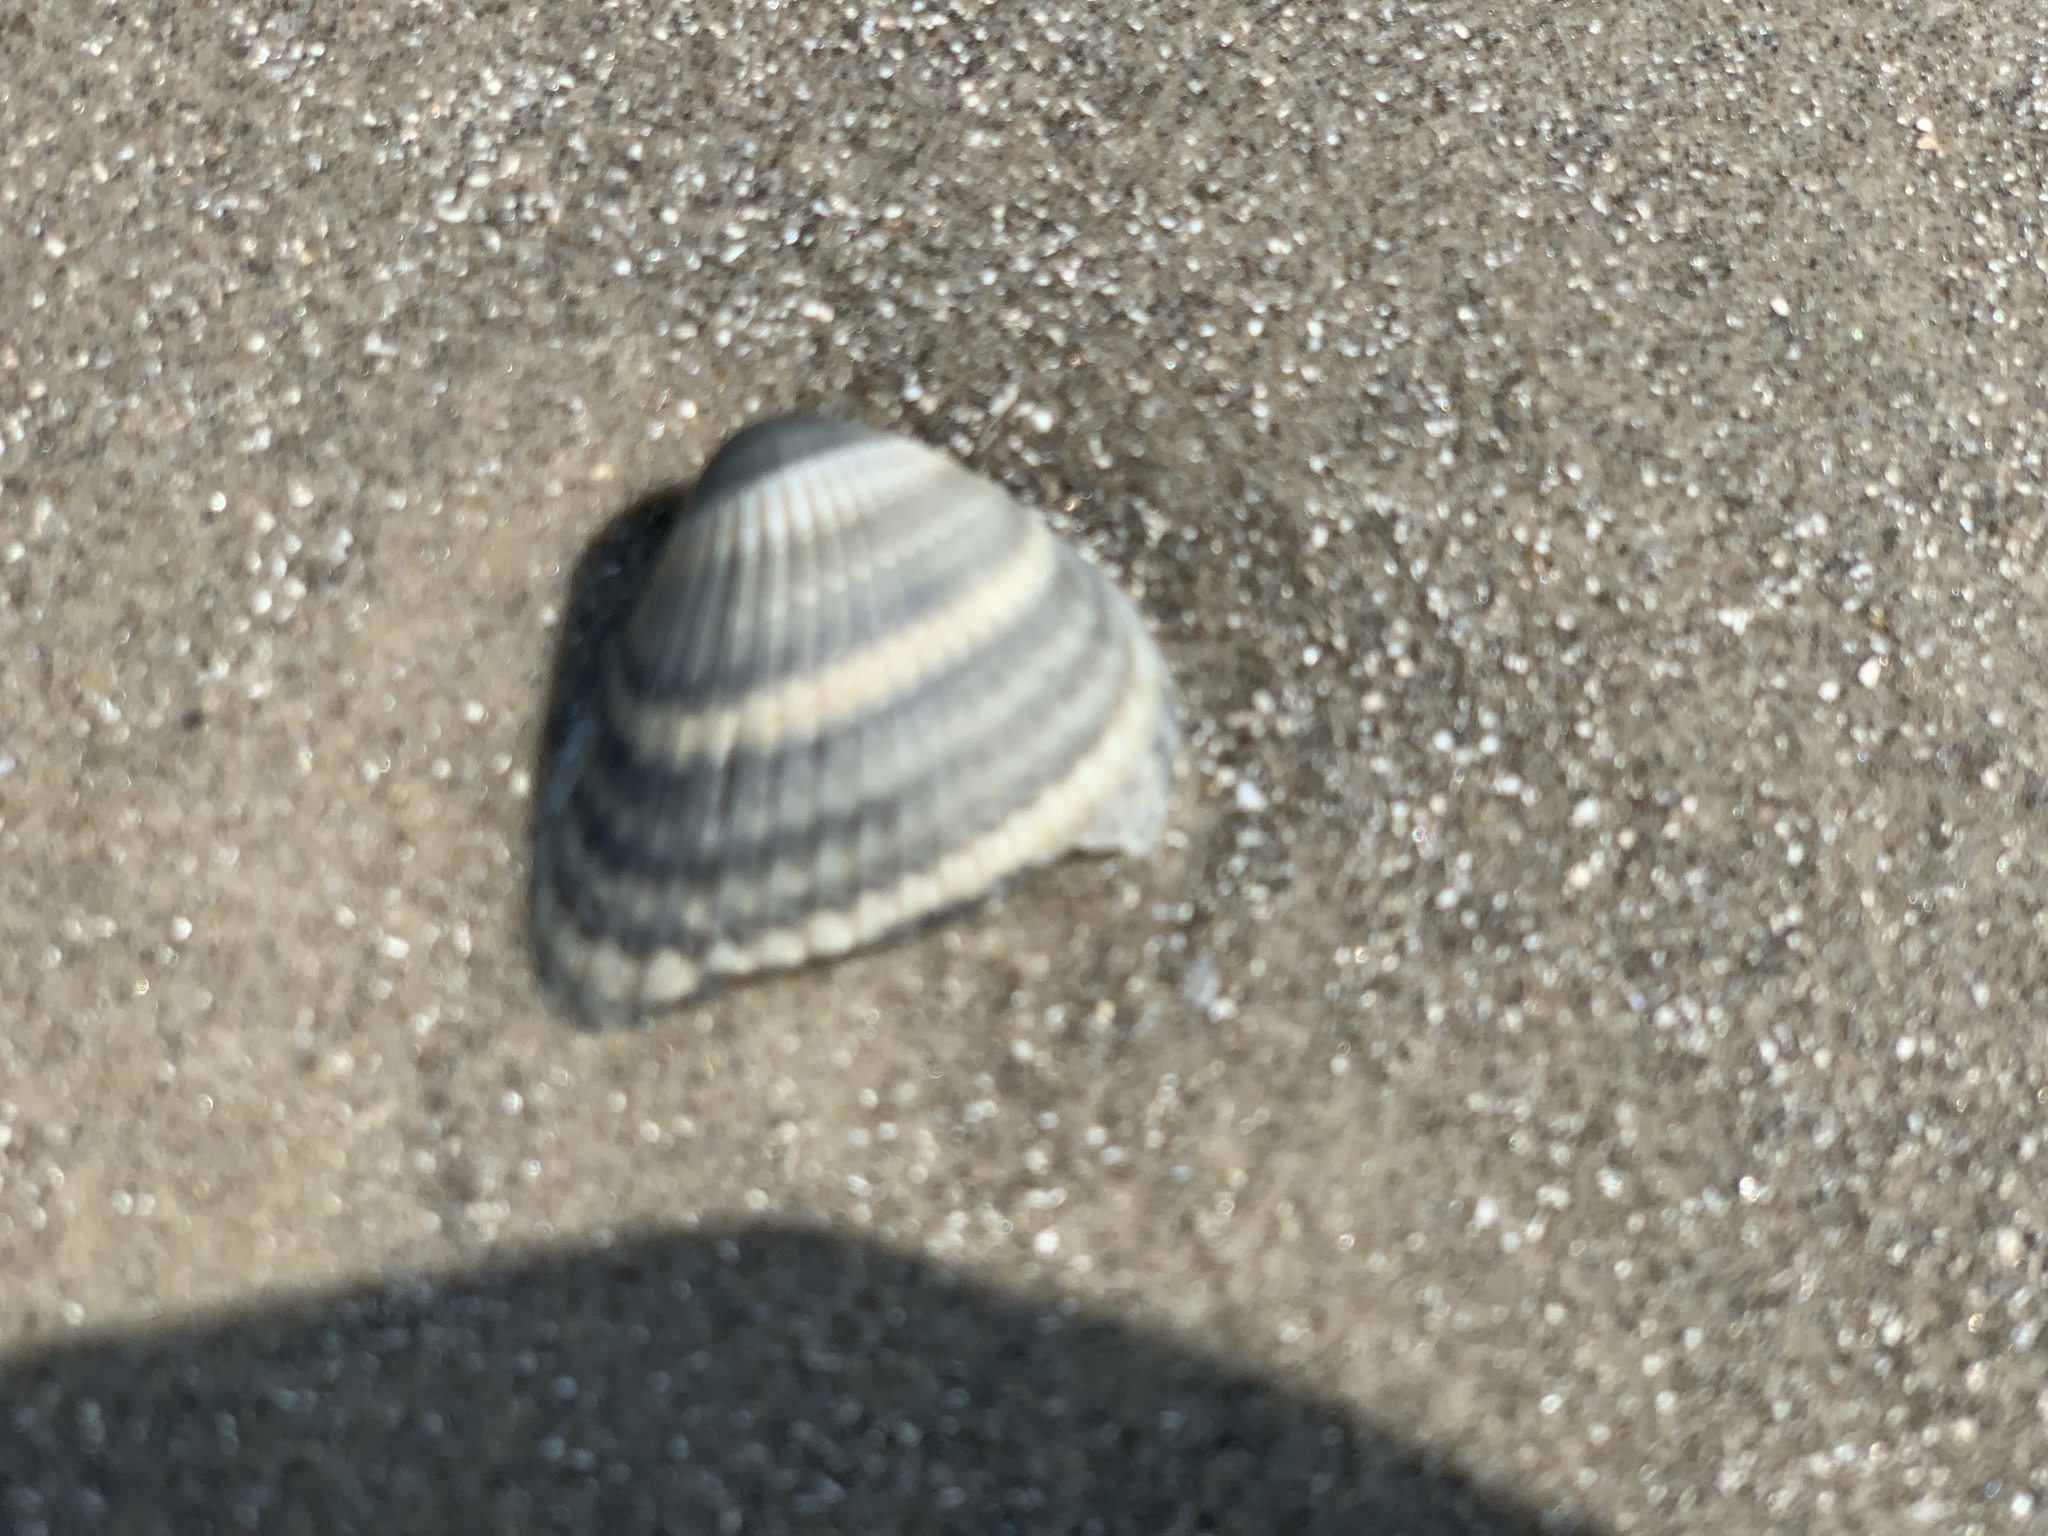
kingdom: Animalia
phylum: Mollusca
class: Bivalvia
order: Arcida
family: Noetiidae
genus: Noetia
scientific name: Noetia ponderosa
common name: Ponderous ark
